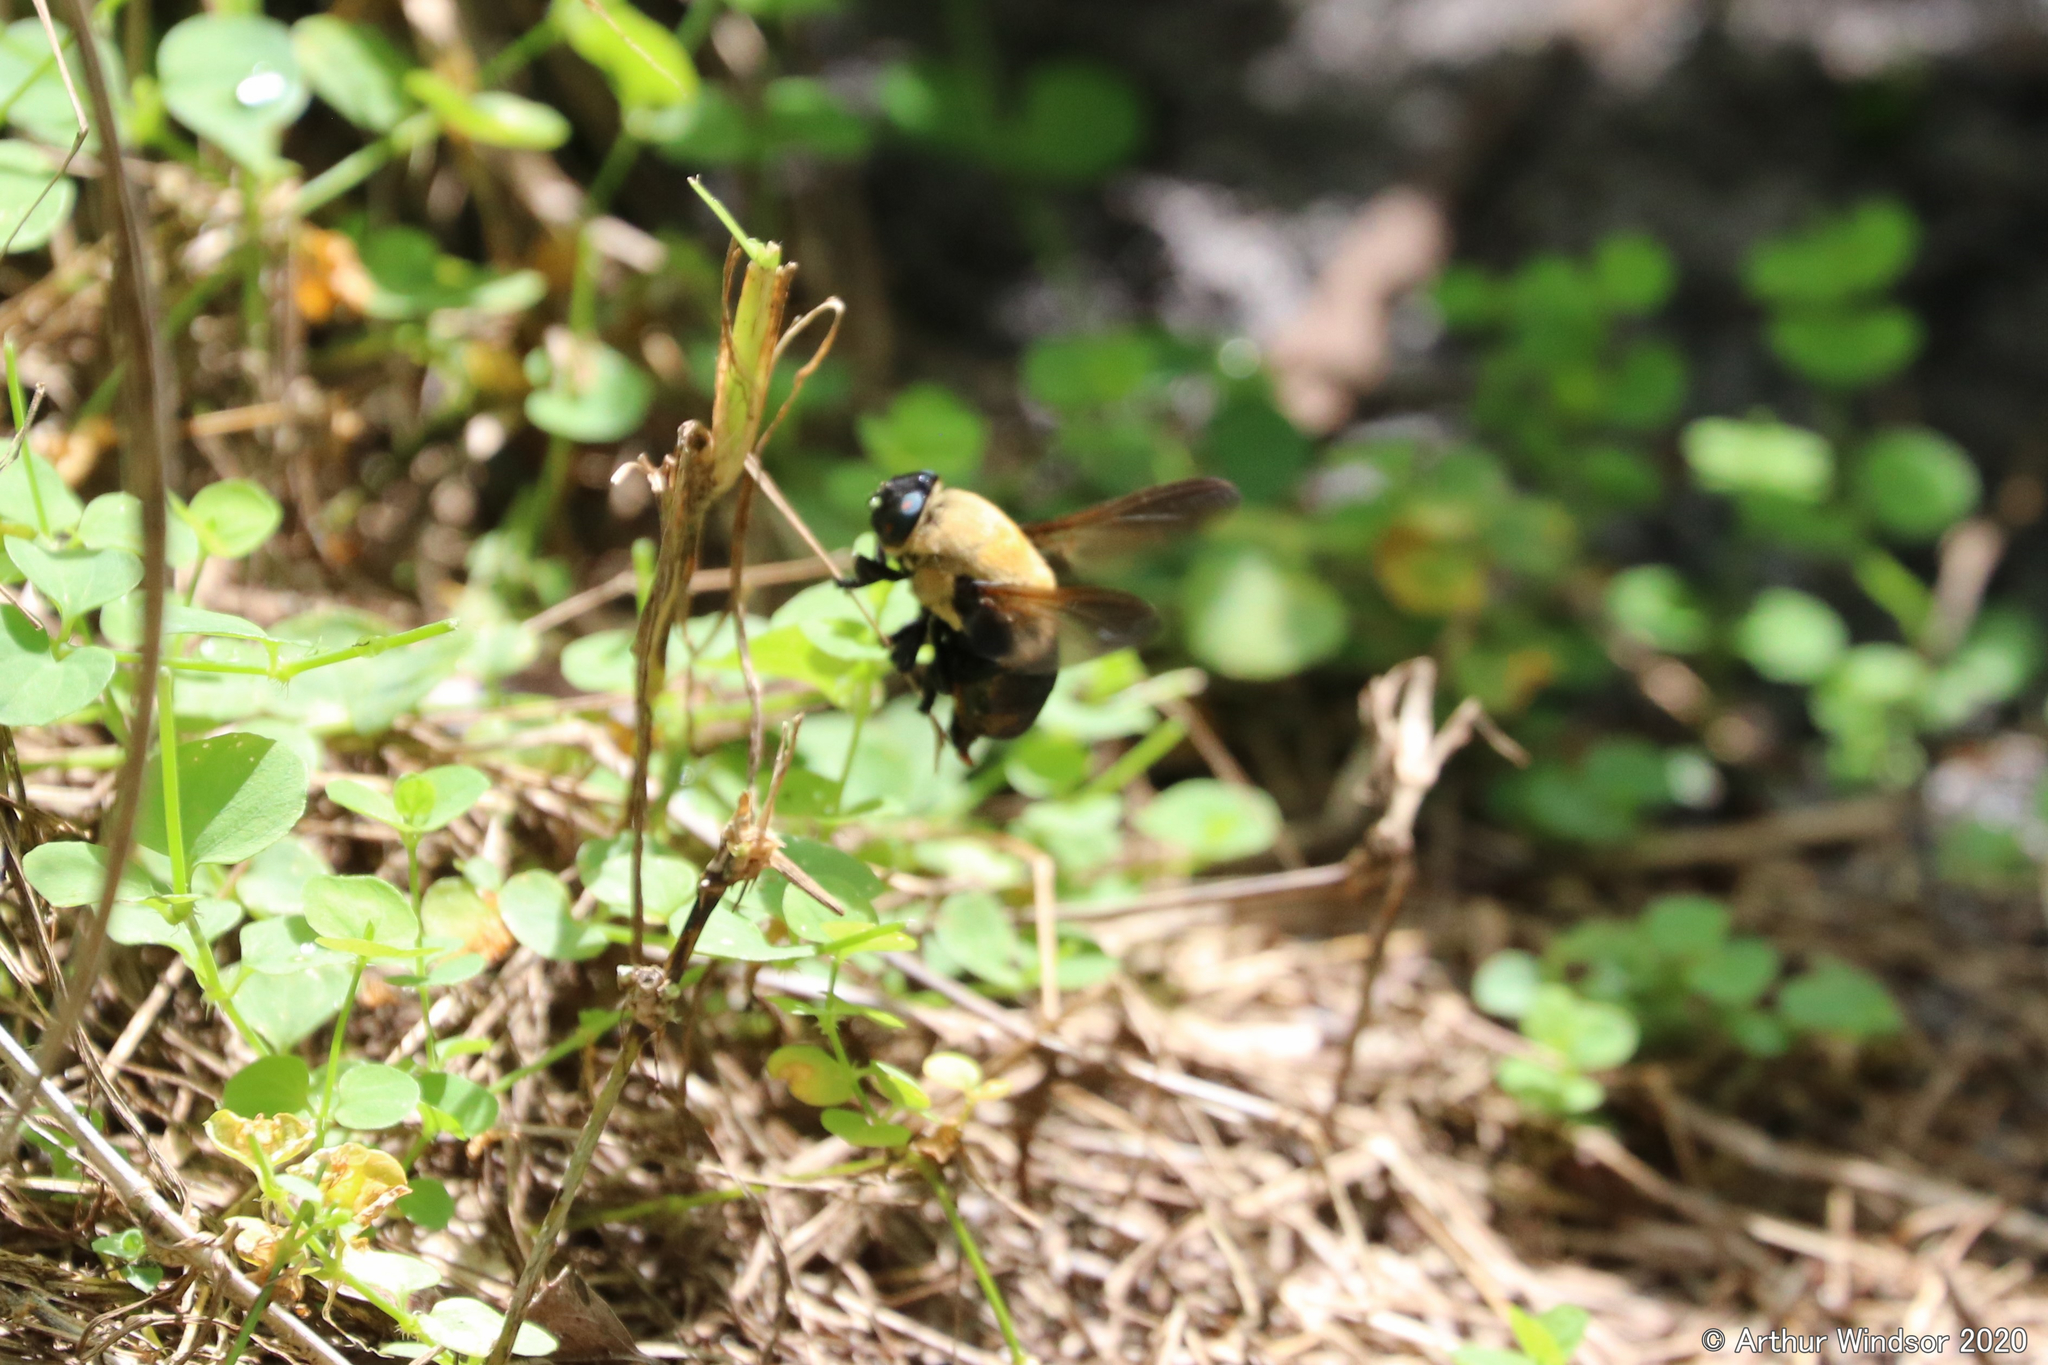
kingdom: Animalia
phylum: Arthropoda
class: Insecta
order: Diptera
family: Oestridae
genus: Cuterebra
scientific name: Cuterebra cuniculi
